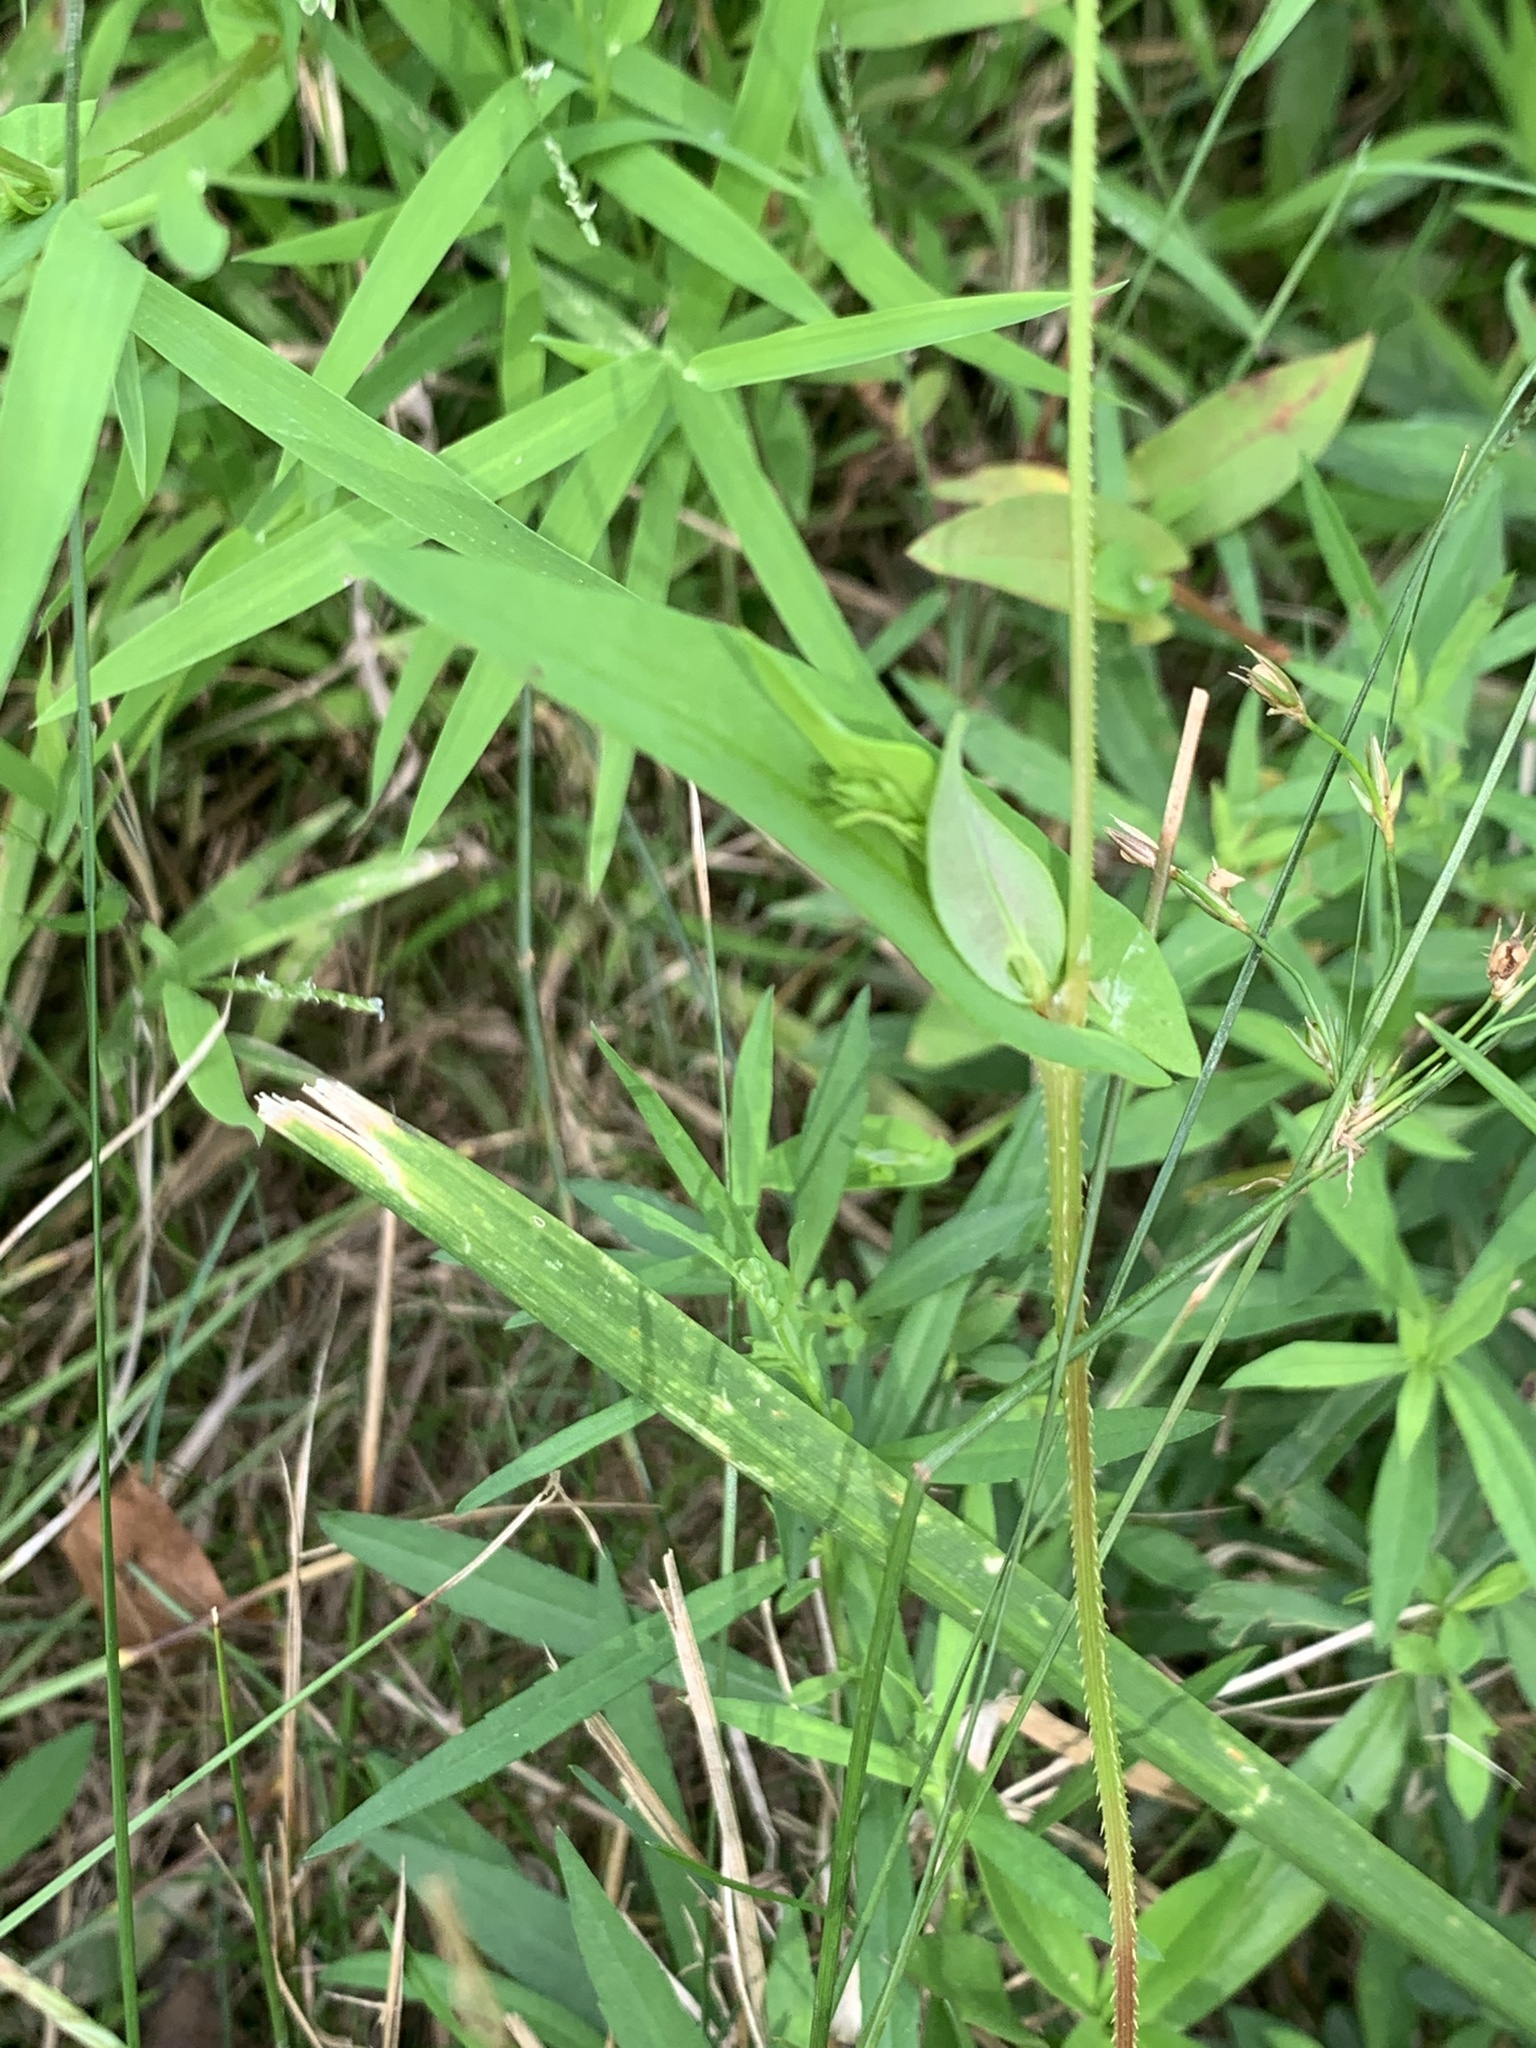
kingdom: Plantae
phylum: Tracheophyta
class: Magnoliopsida
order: Caryophyllales
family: Polygonaceae
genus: Persicaria
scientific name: Persicaria sagittata
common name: American tearthumb
